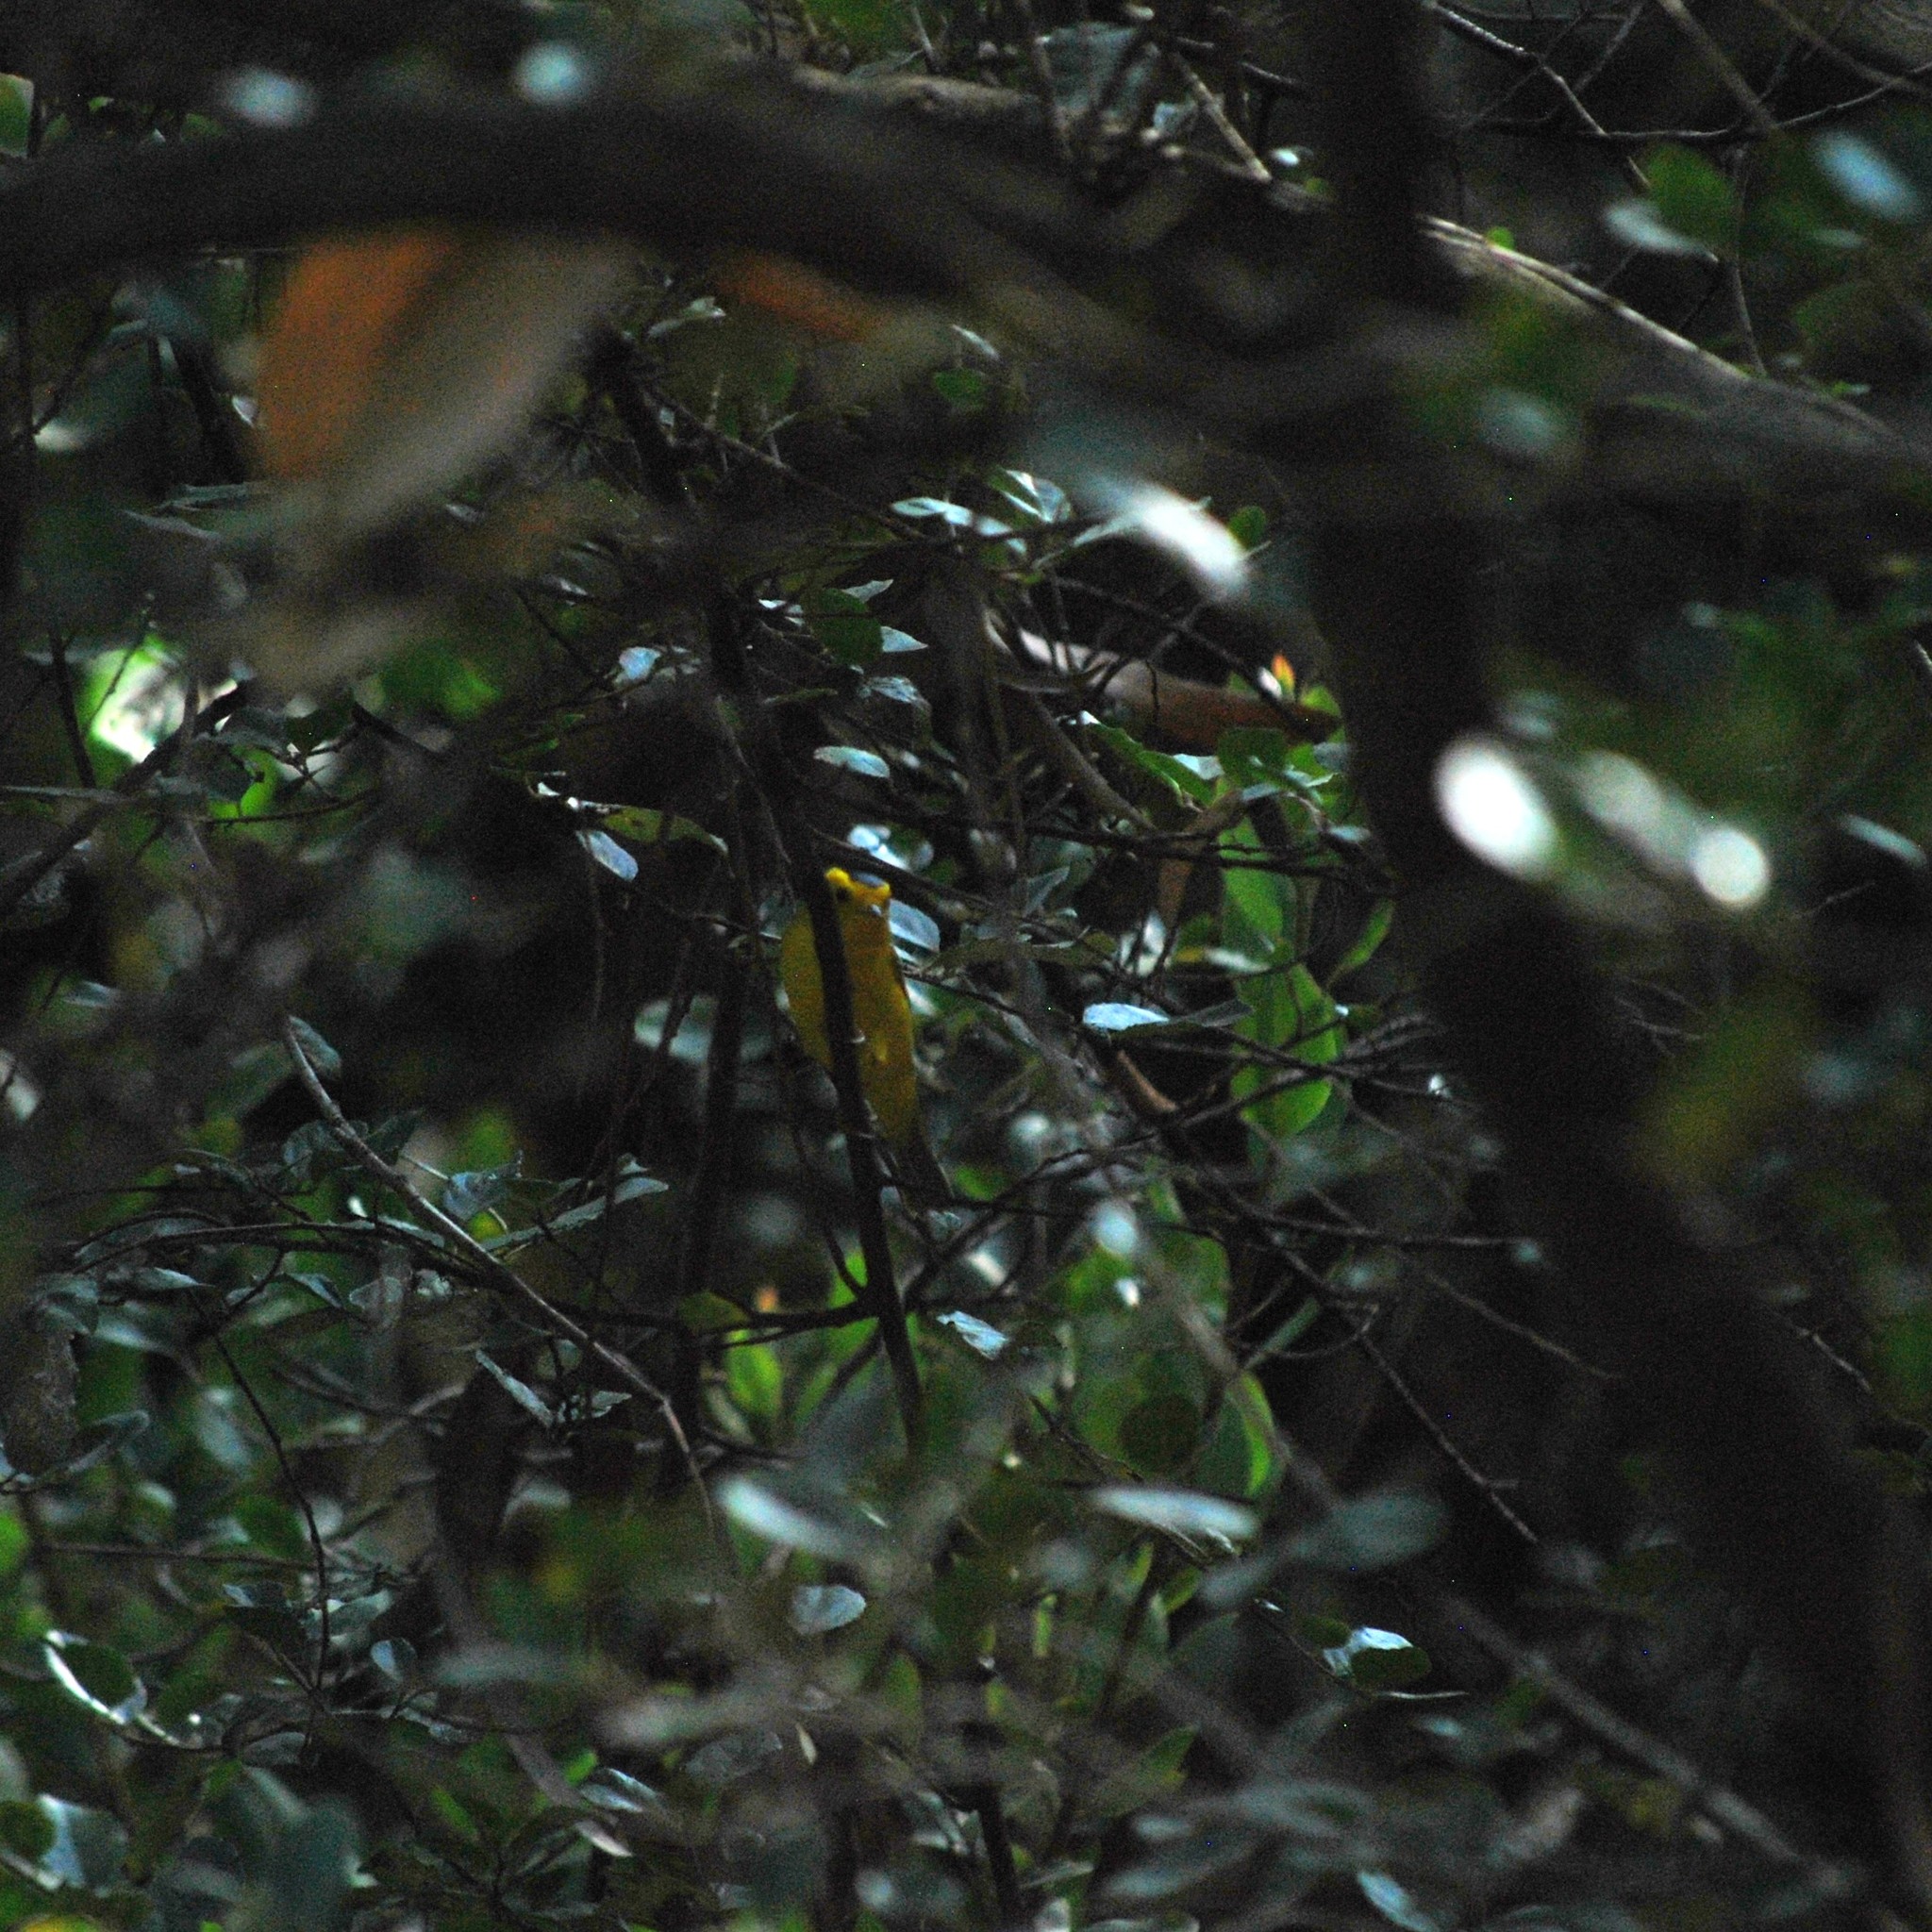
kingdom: Animalia
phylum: Chordata
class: Aves
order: Passeriformes
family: Parulidae
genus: Cardellina
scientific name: Cardellina pusilla
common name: Wilson's warbler
